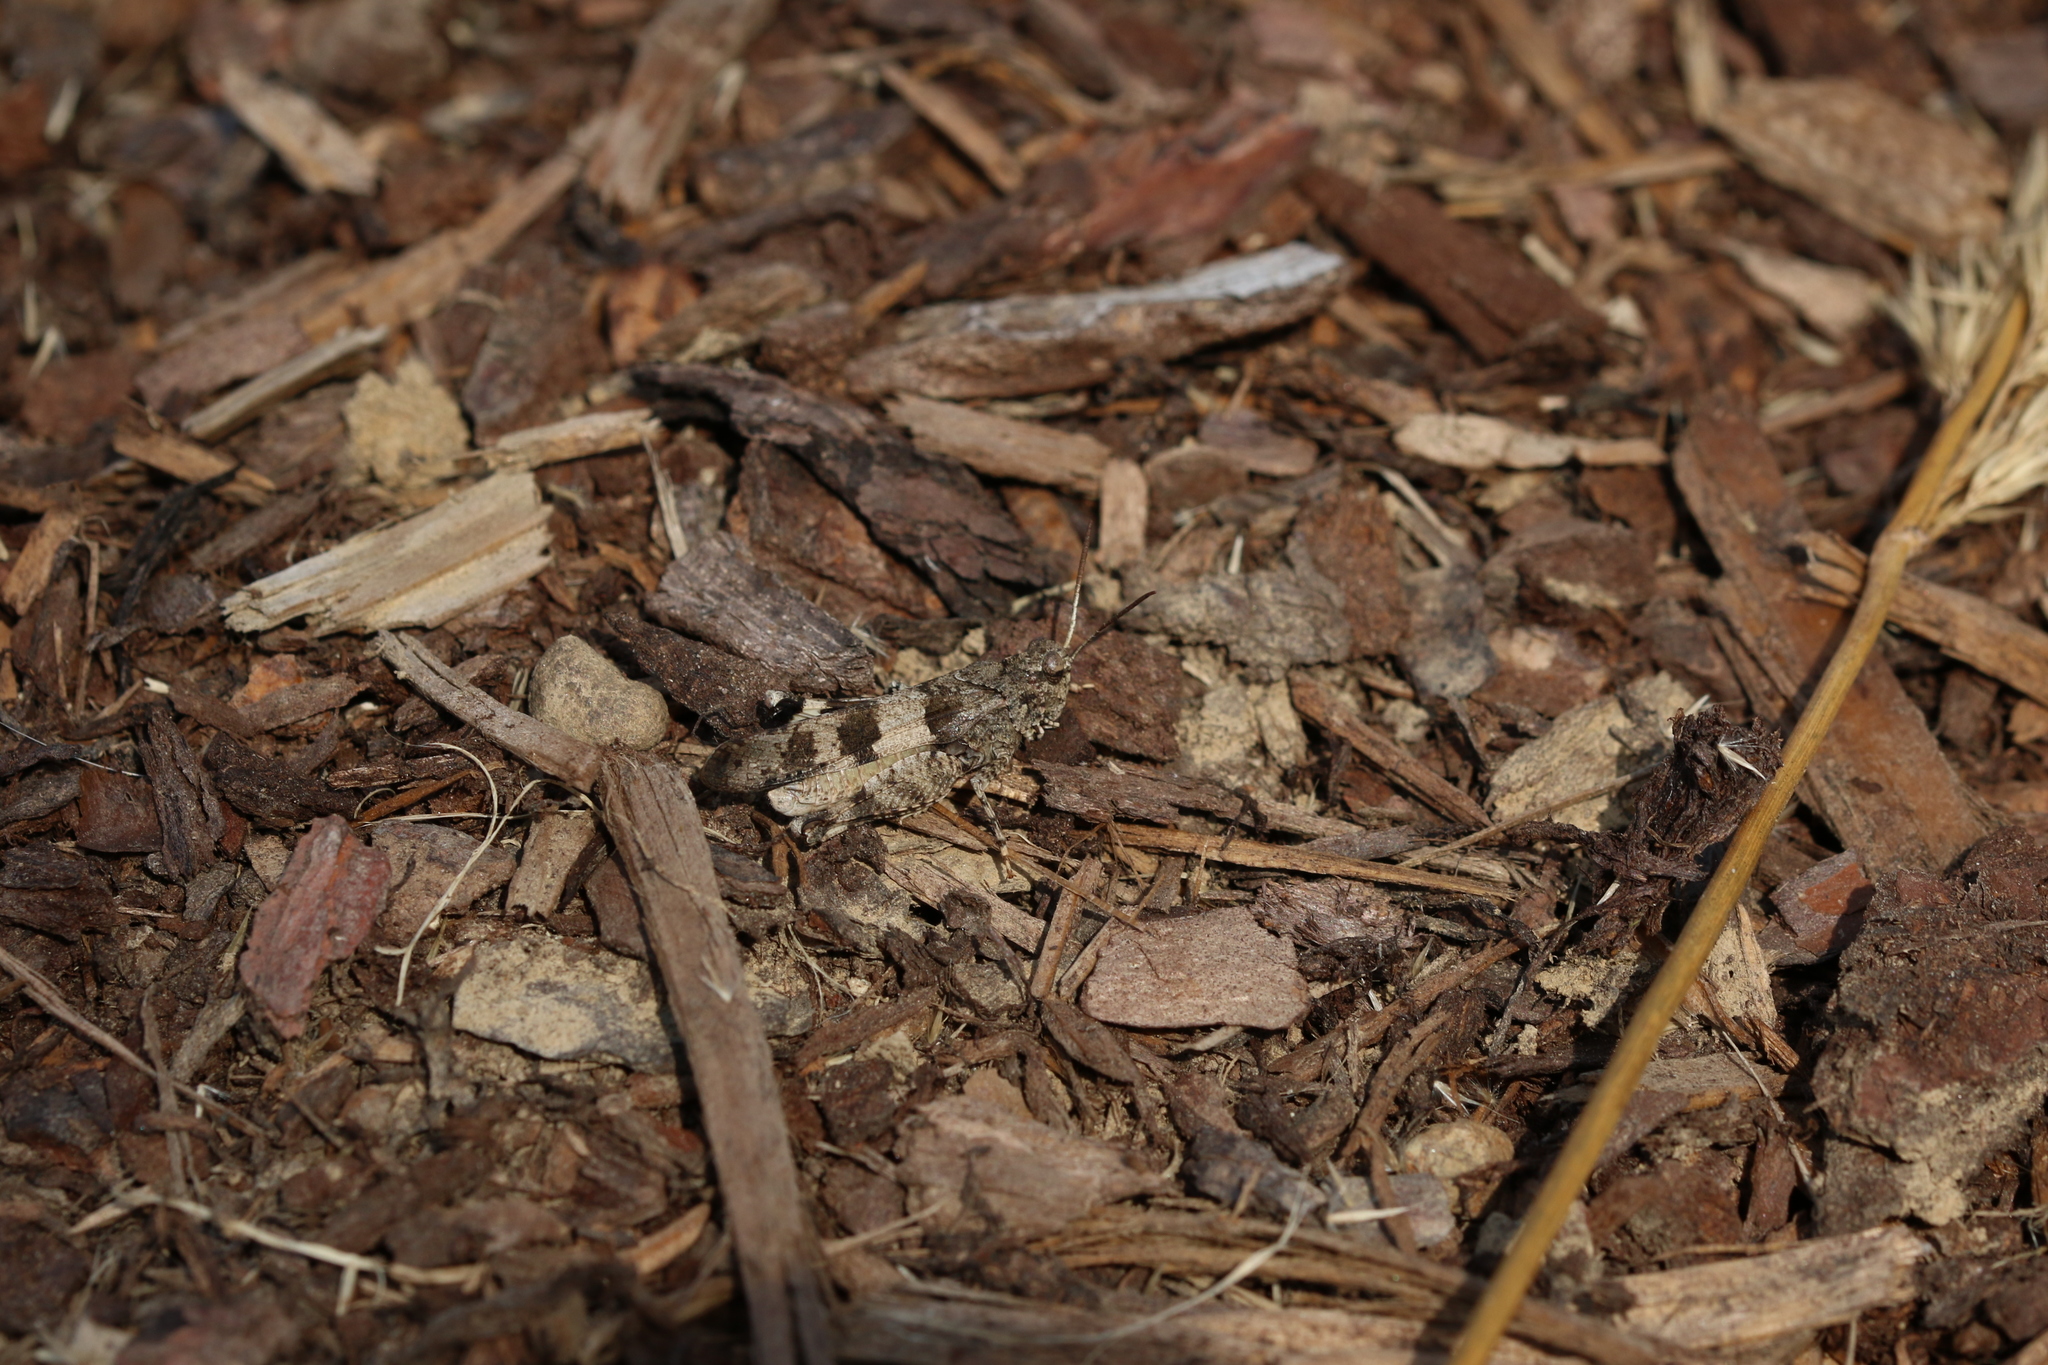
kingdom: Animalia
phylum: Arthropoda
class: Insecta
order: Orthoptera
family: Acrididae
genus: Oedipoda
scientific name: Oedipoda caerulescens
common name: Blue-winged grasshopper
